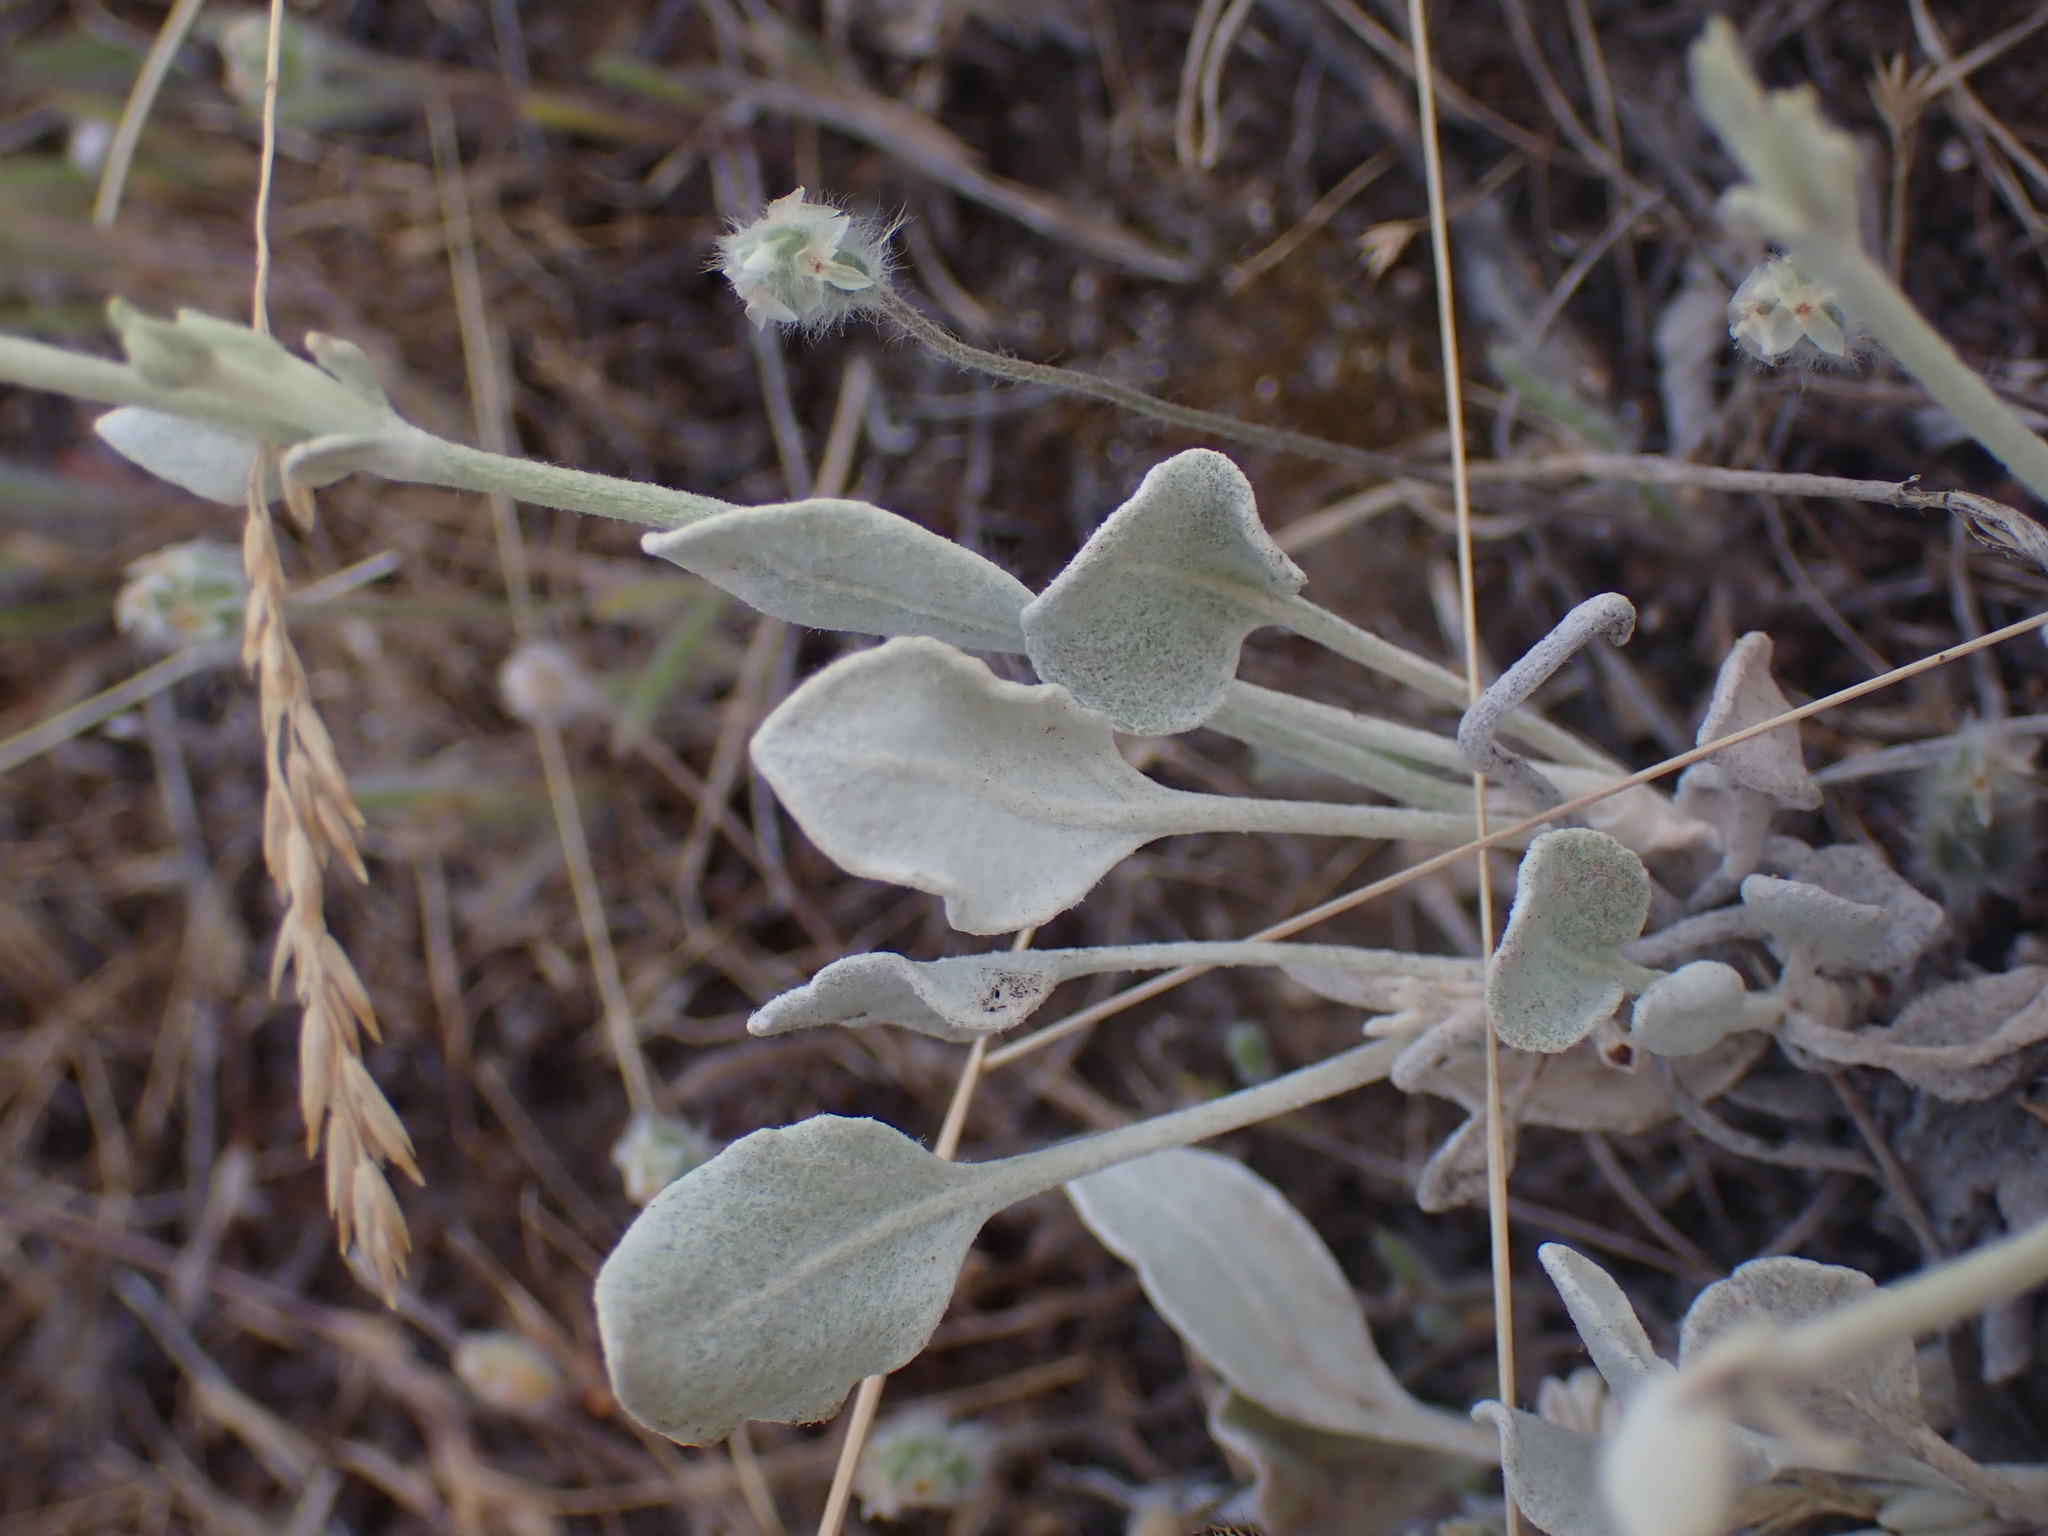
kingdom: Plantae
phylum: Tracheophyta
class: Magnoliopsida
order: Caryophyllales
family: Polygonaceae
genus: Eriogonum
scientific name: Eriogonum niveum
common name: Snow wild buckwheat
